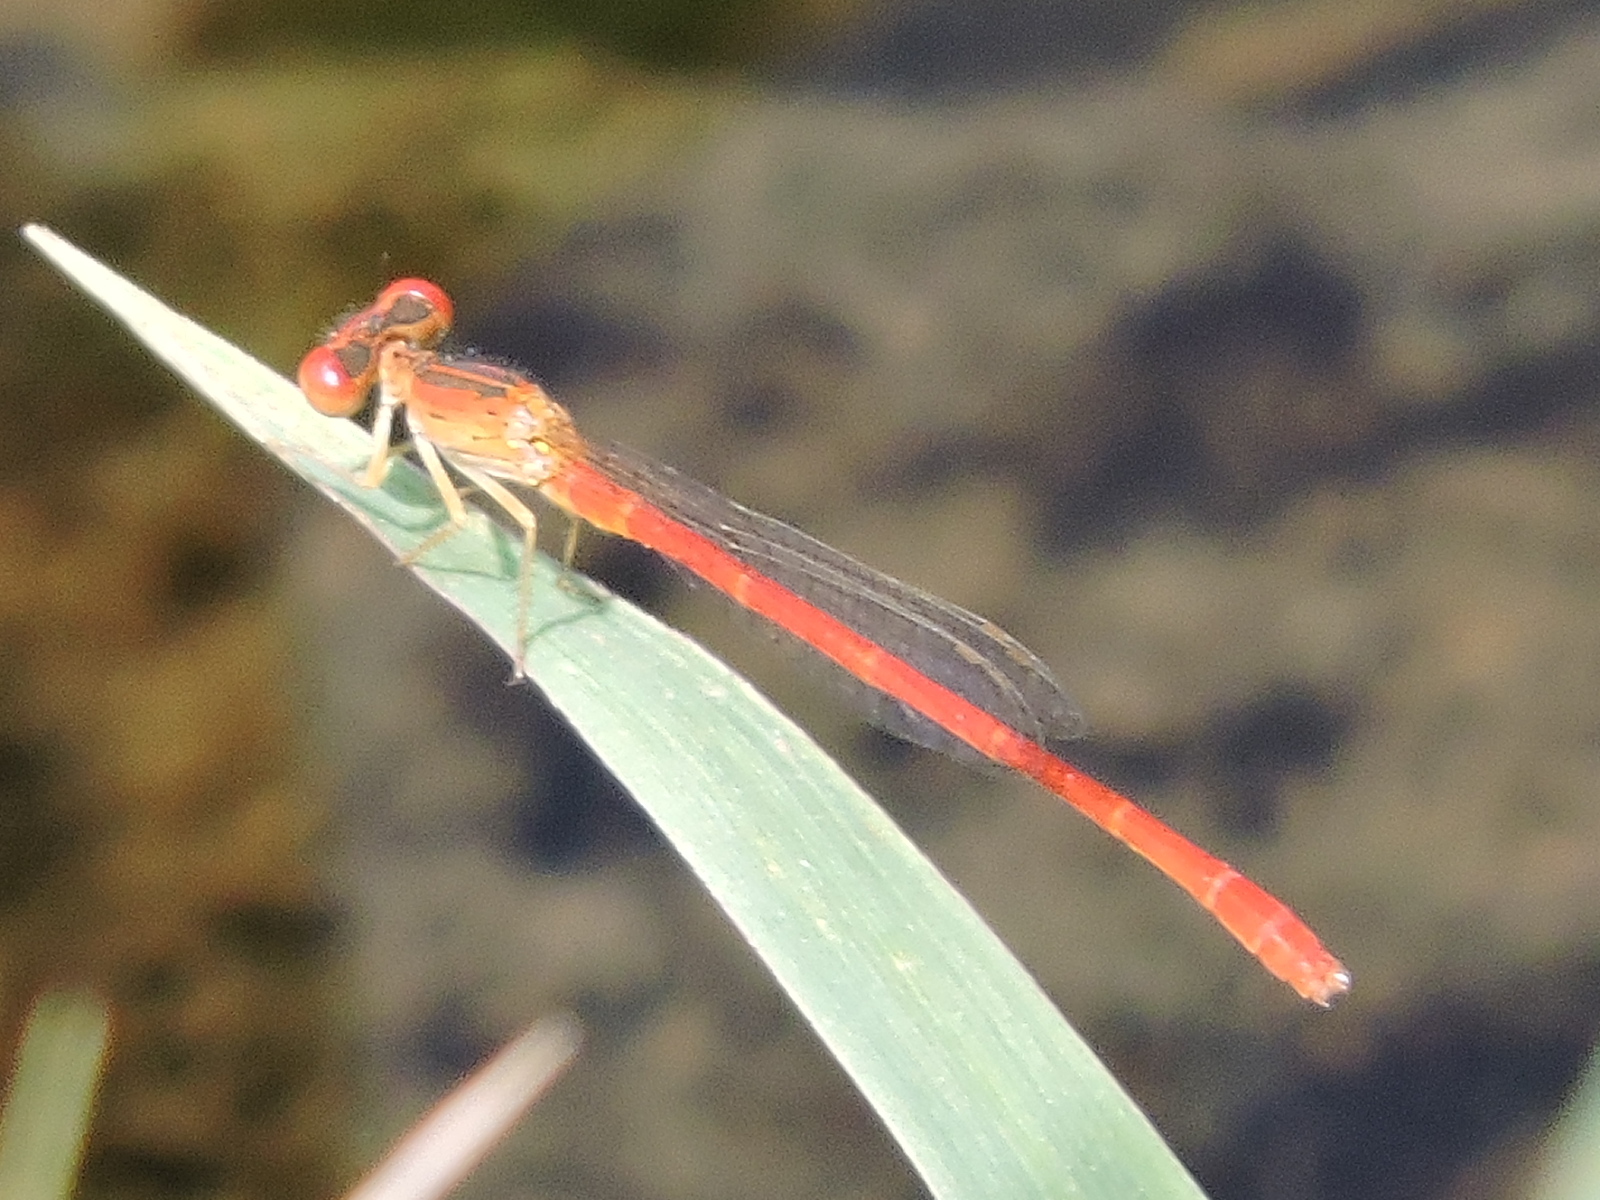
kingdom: Animalia
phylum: Arthropoda
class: Insecta
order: Odonata
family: Coenagrionidae
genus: Telebasis
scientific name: Telebasis salva
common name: Desert firetail
